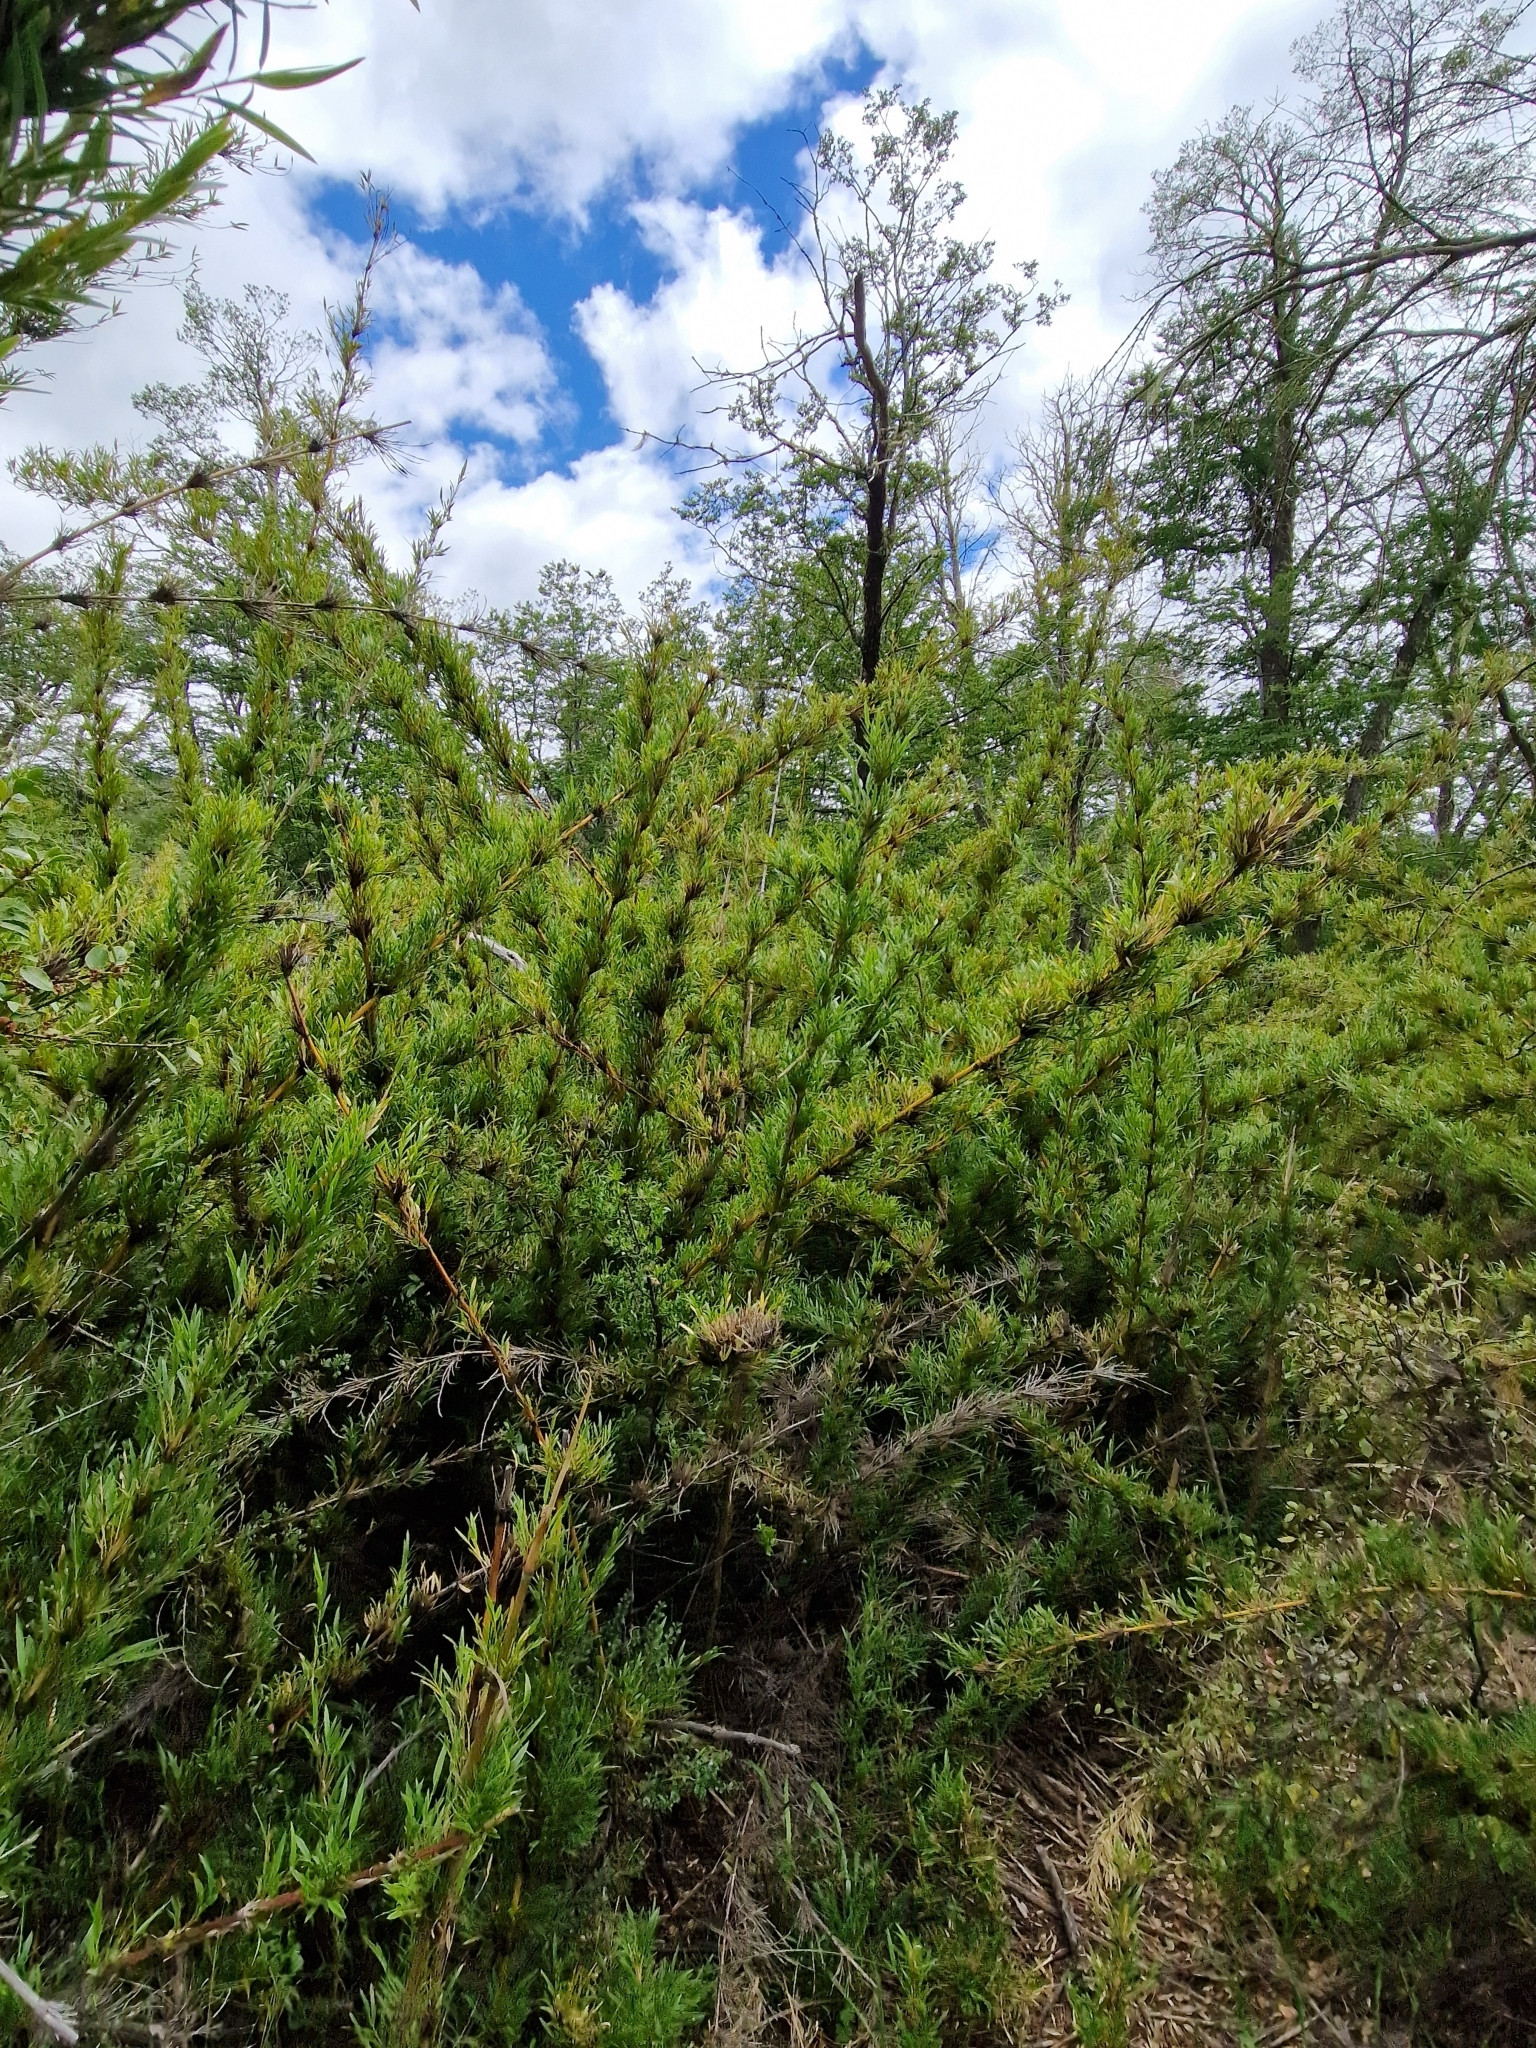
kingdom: Plantae
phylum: Tracheophyta
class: Liliopsida
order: Poales
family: Poaceae
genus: Chusquea
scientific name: Chusquea culeou
